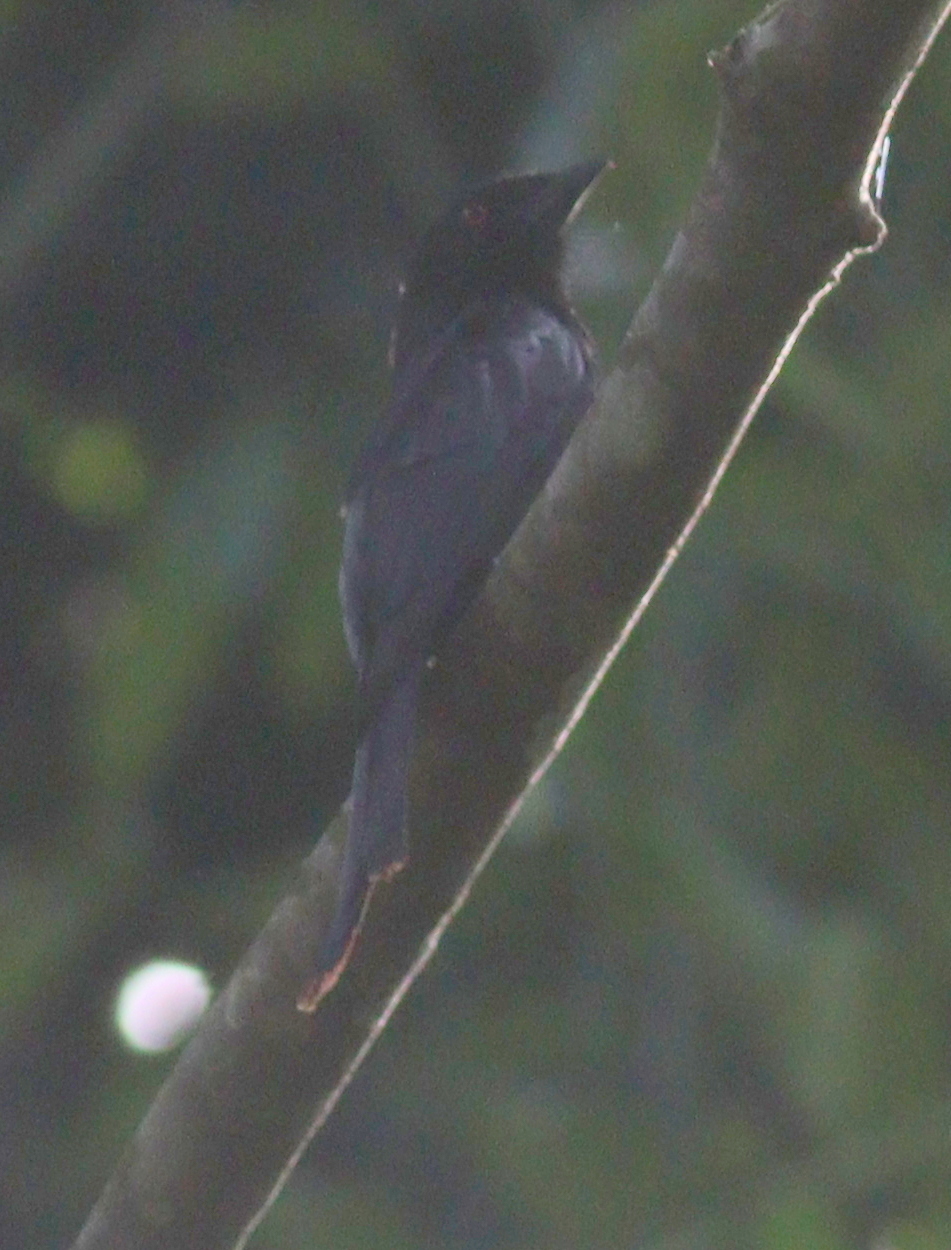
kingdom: Animalia
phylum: Chordata
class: Aves
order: Passeriformes
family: Dicruridae
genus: Dicrurus
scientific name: Dicrurus modestus
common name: Velvet-mantled drongo
